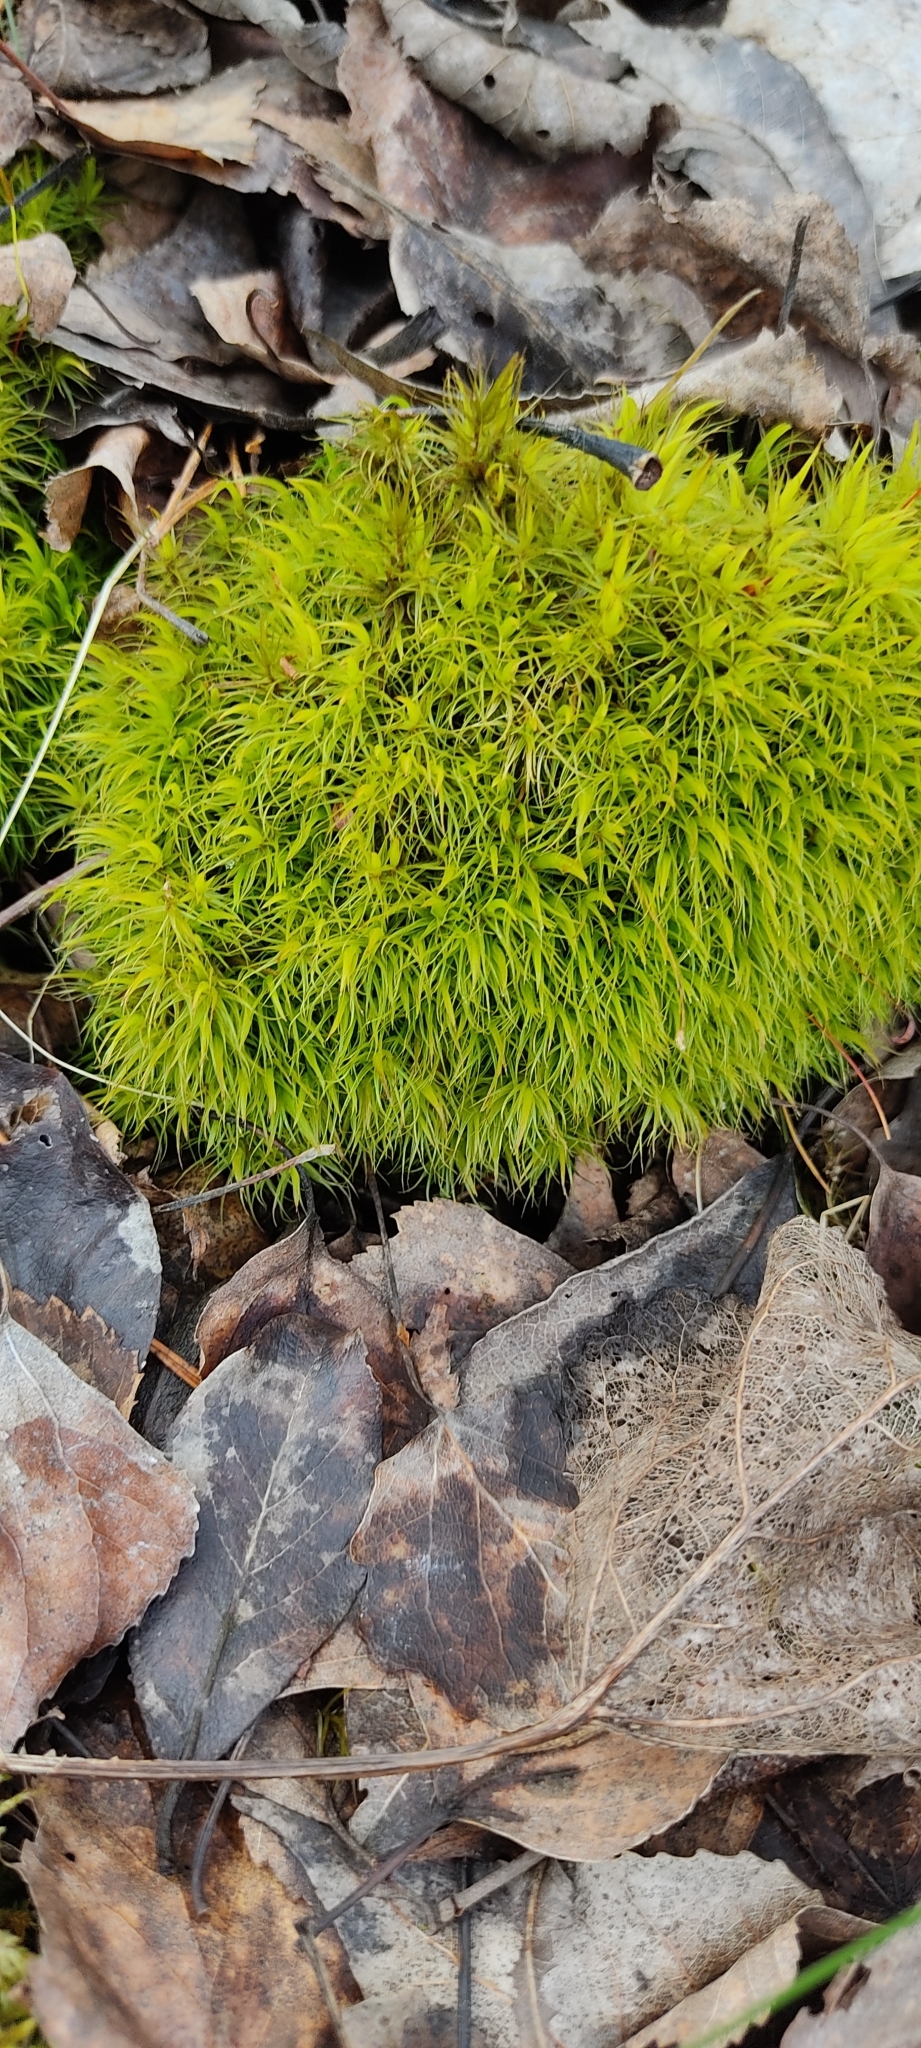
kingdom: Plantae
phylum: Bryophyta
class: Bryopsida
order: Dicranales
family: Dicranaceae
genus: Dicranum
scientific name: Dicranum scoparium
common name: Broom fork-moss
